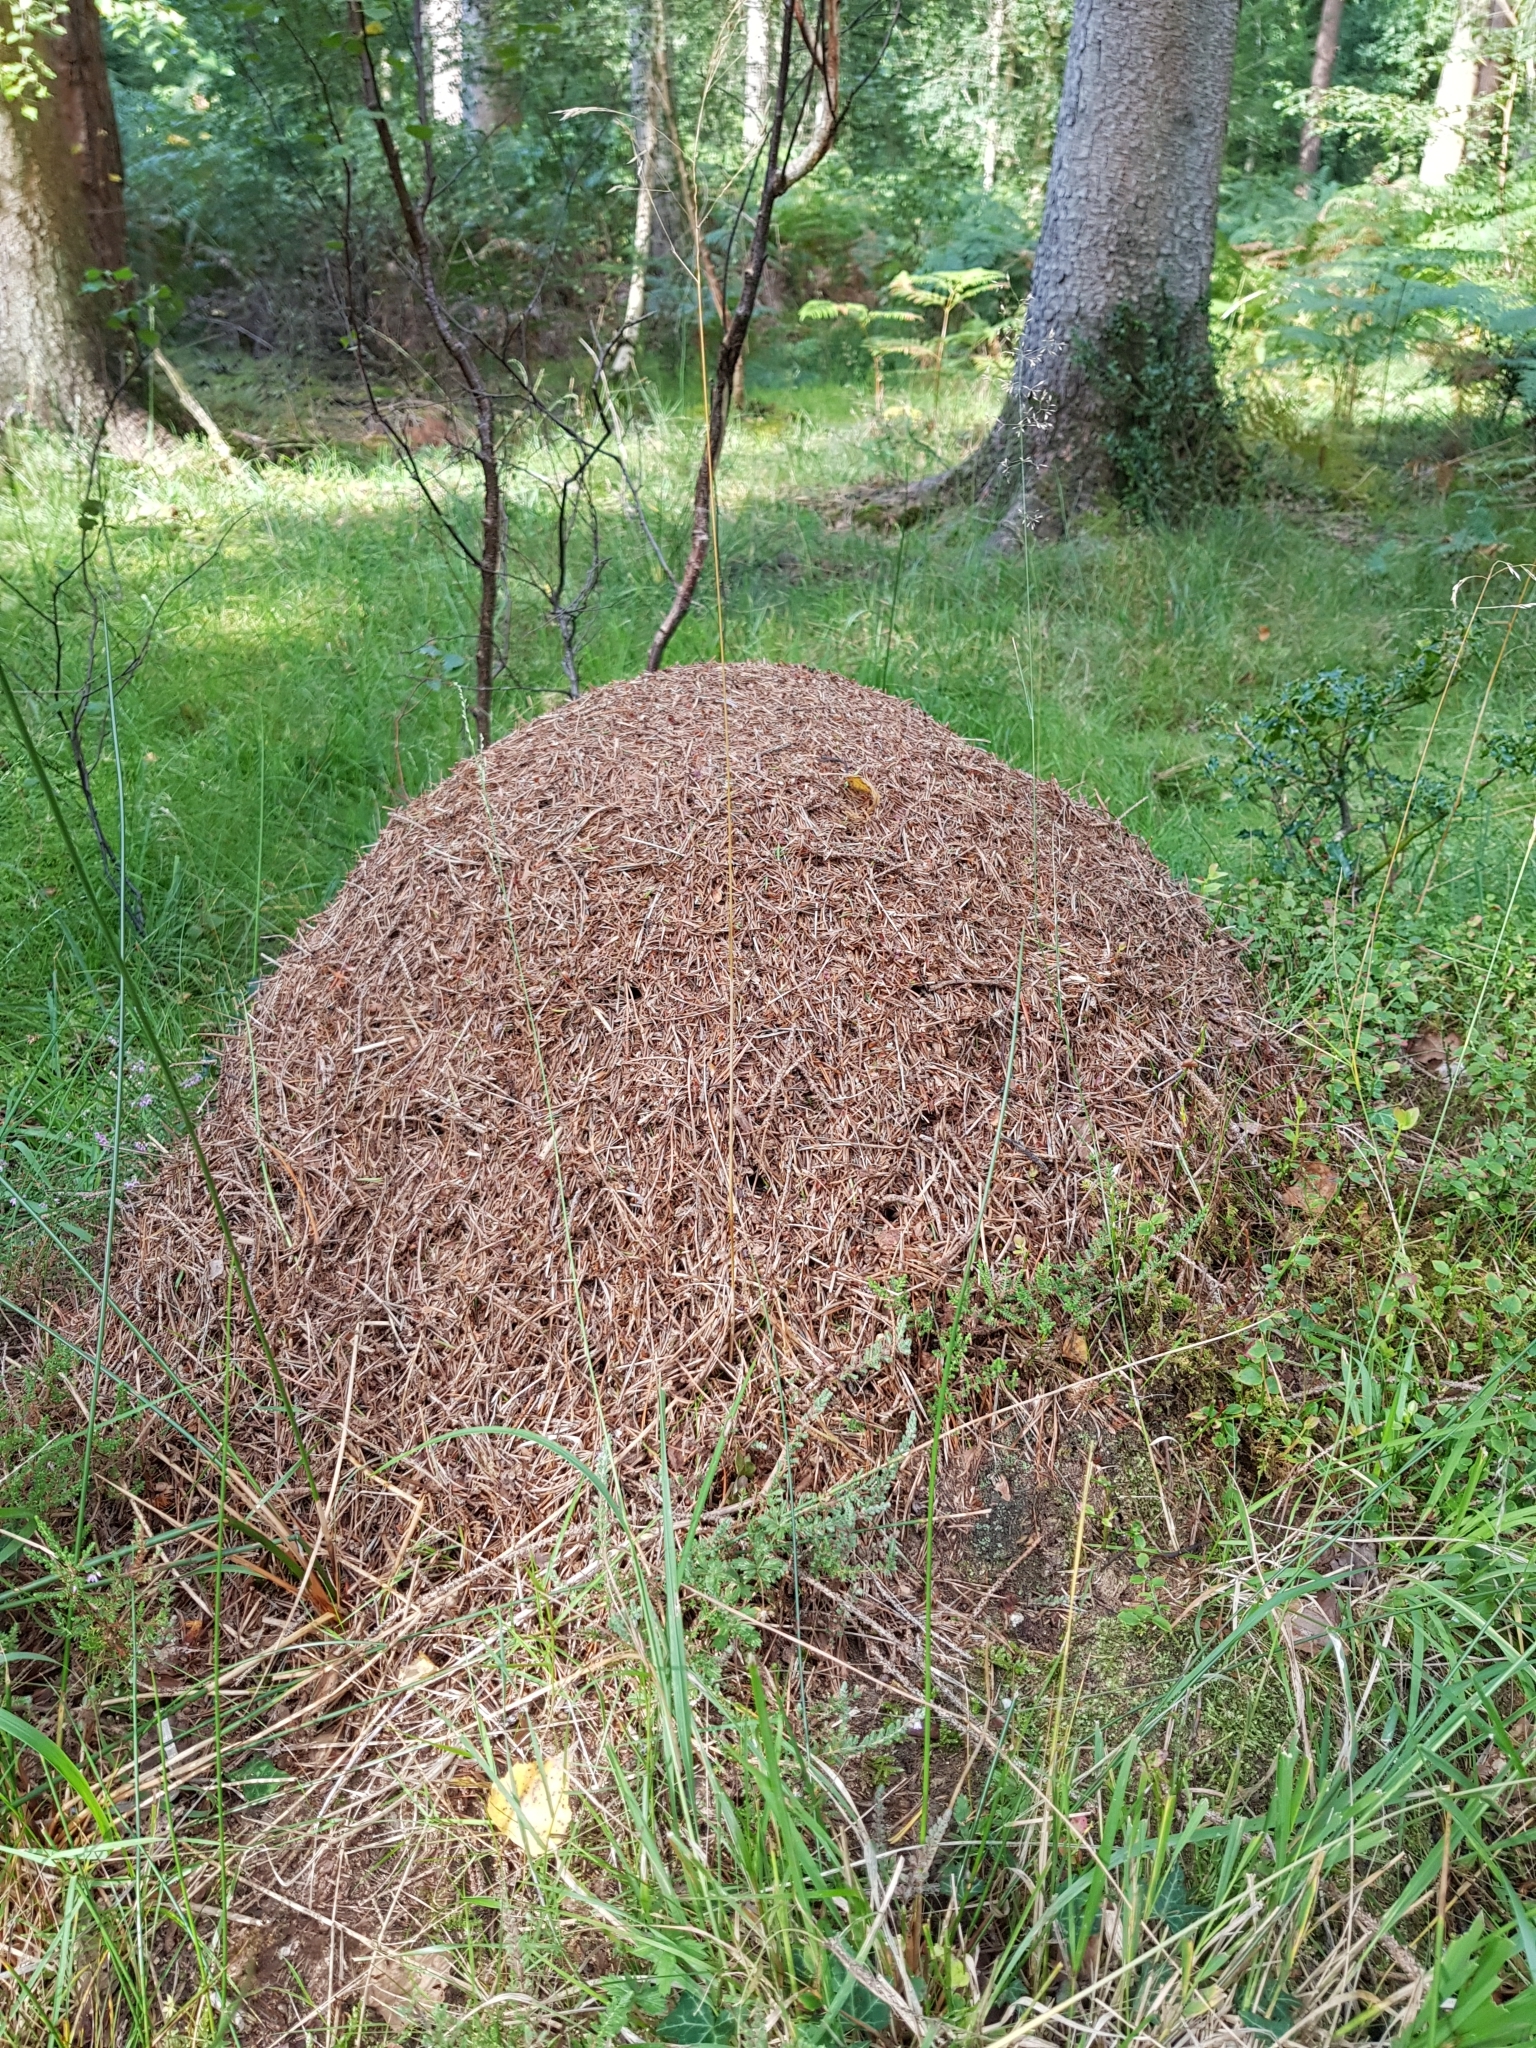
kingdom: Animalia
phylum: Arthropoda
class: Insecta
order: Hymenoptera
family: Formicidae
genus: Formica
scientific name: Formica
